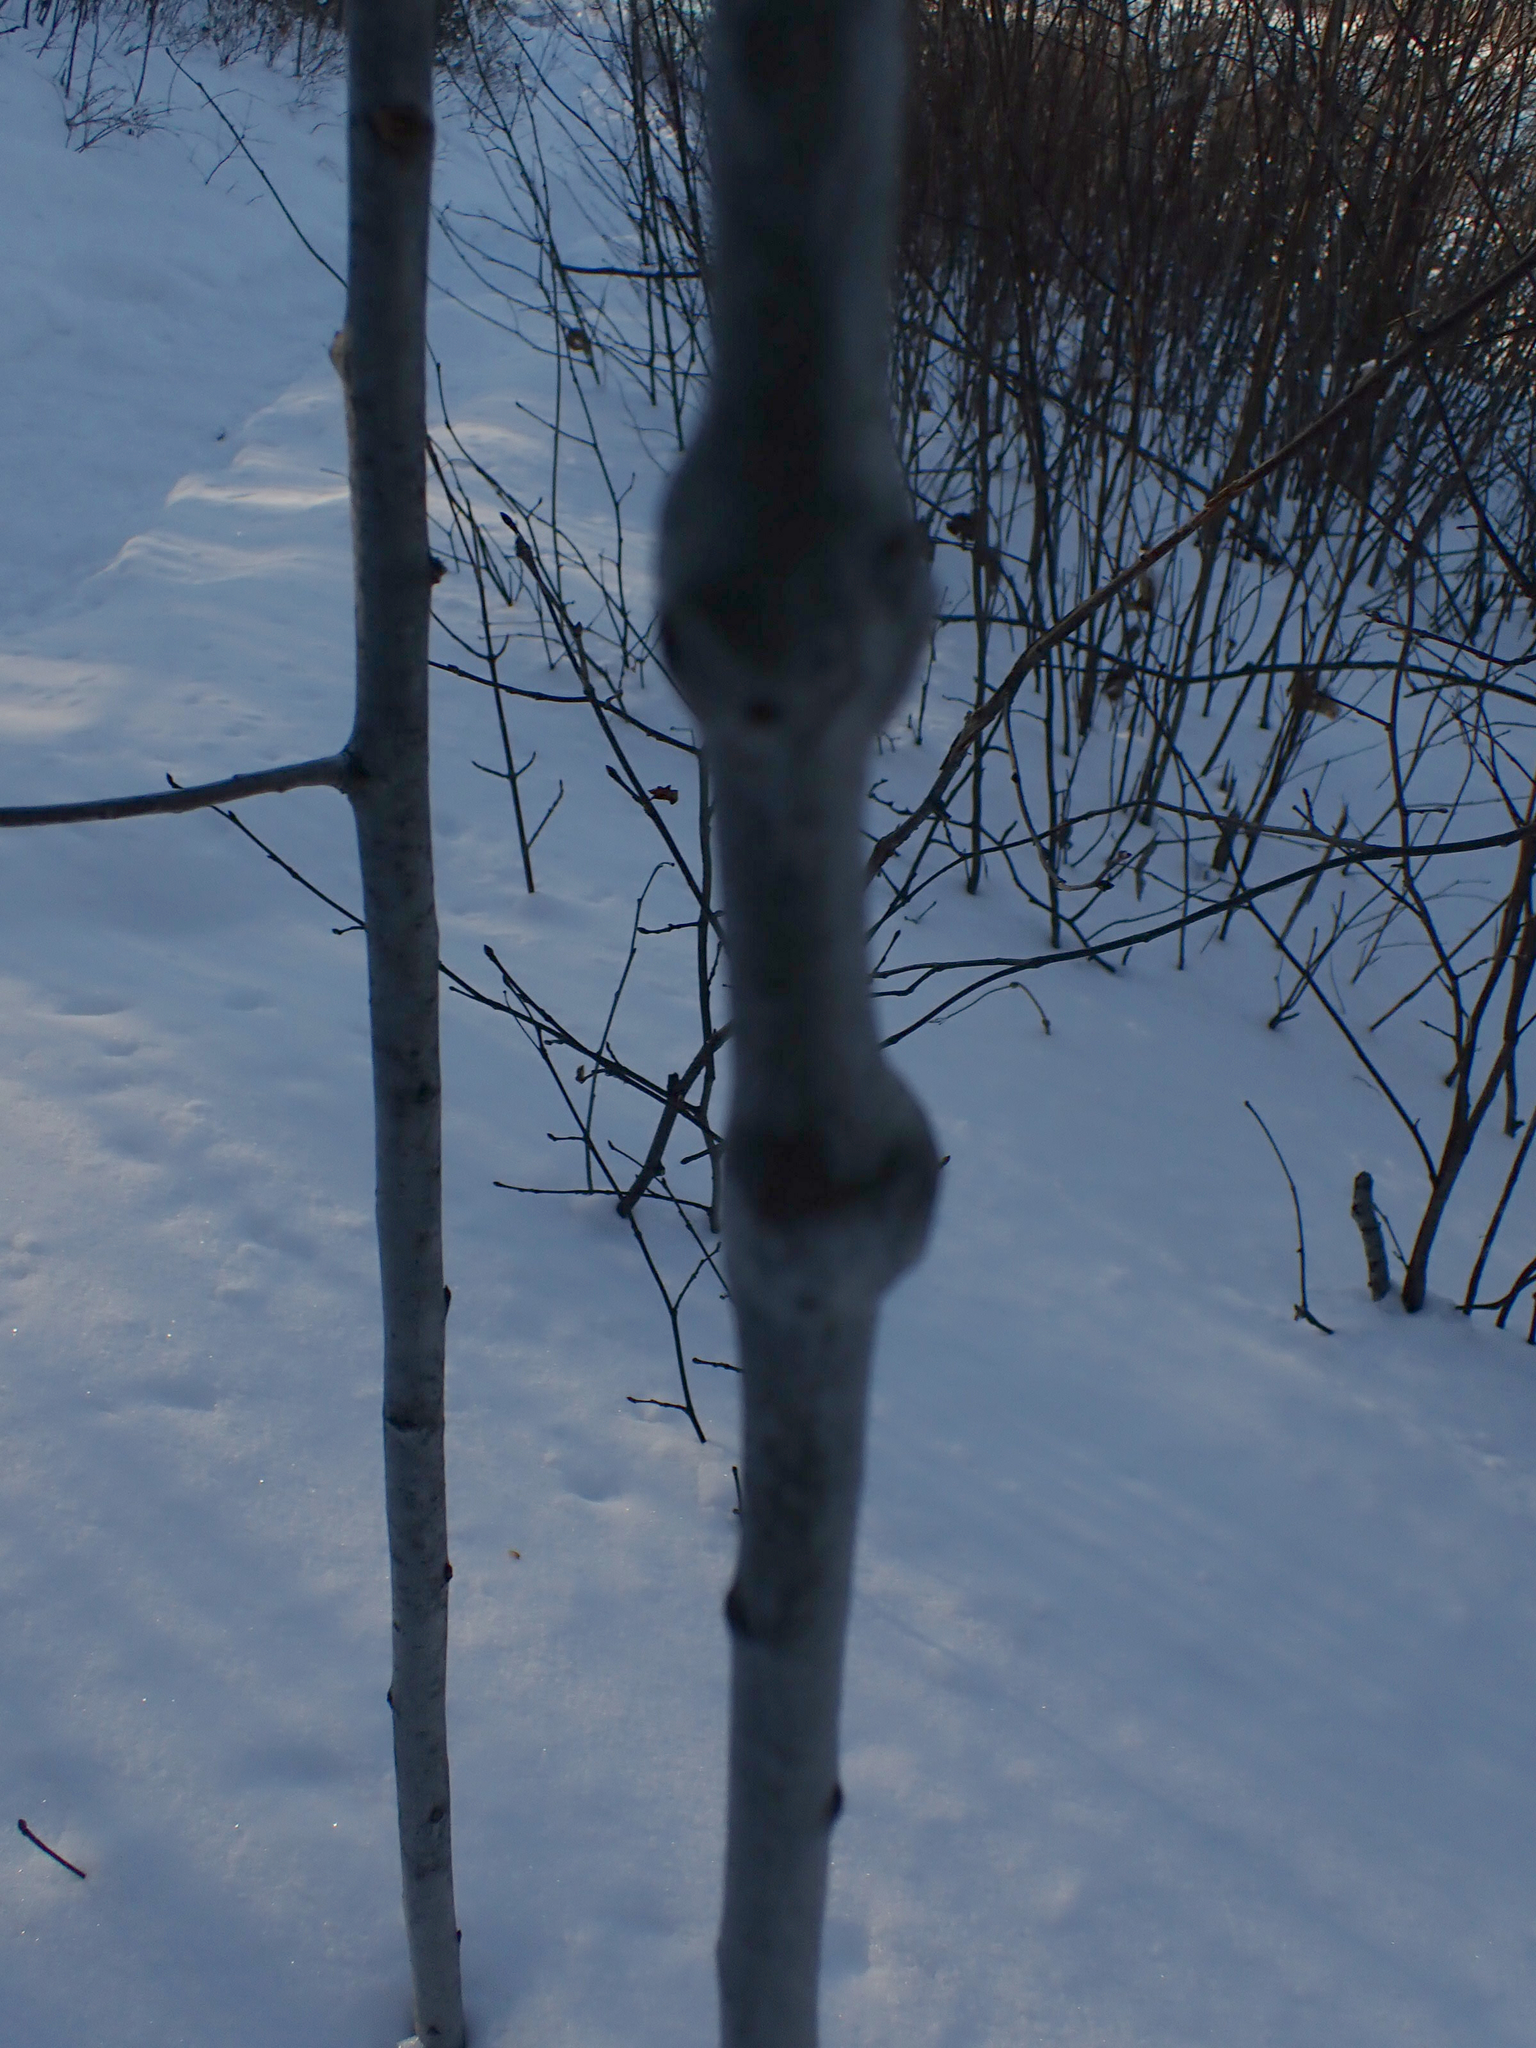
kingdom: Animalia
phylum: Arthropoda
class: Insecta
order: Diptera
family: Agromyzidae
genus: Euhexomyza
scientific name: Euhexomyza schineri
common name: Poplar twiggall fly
